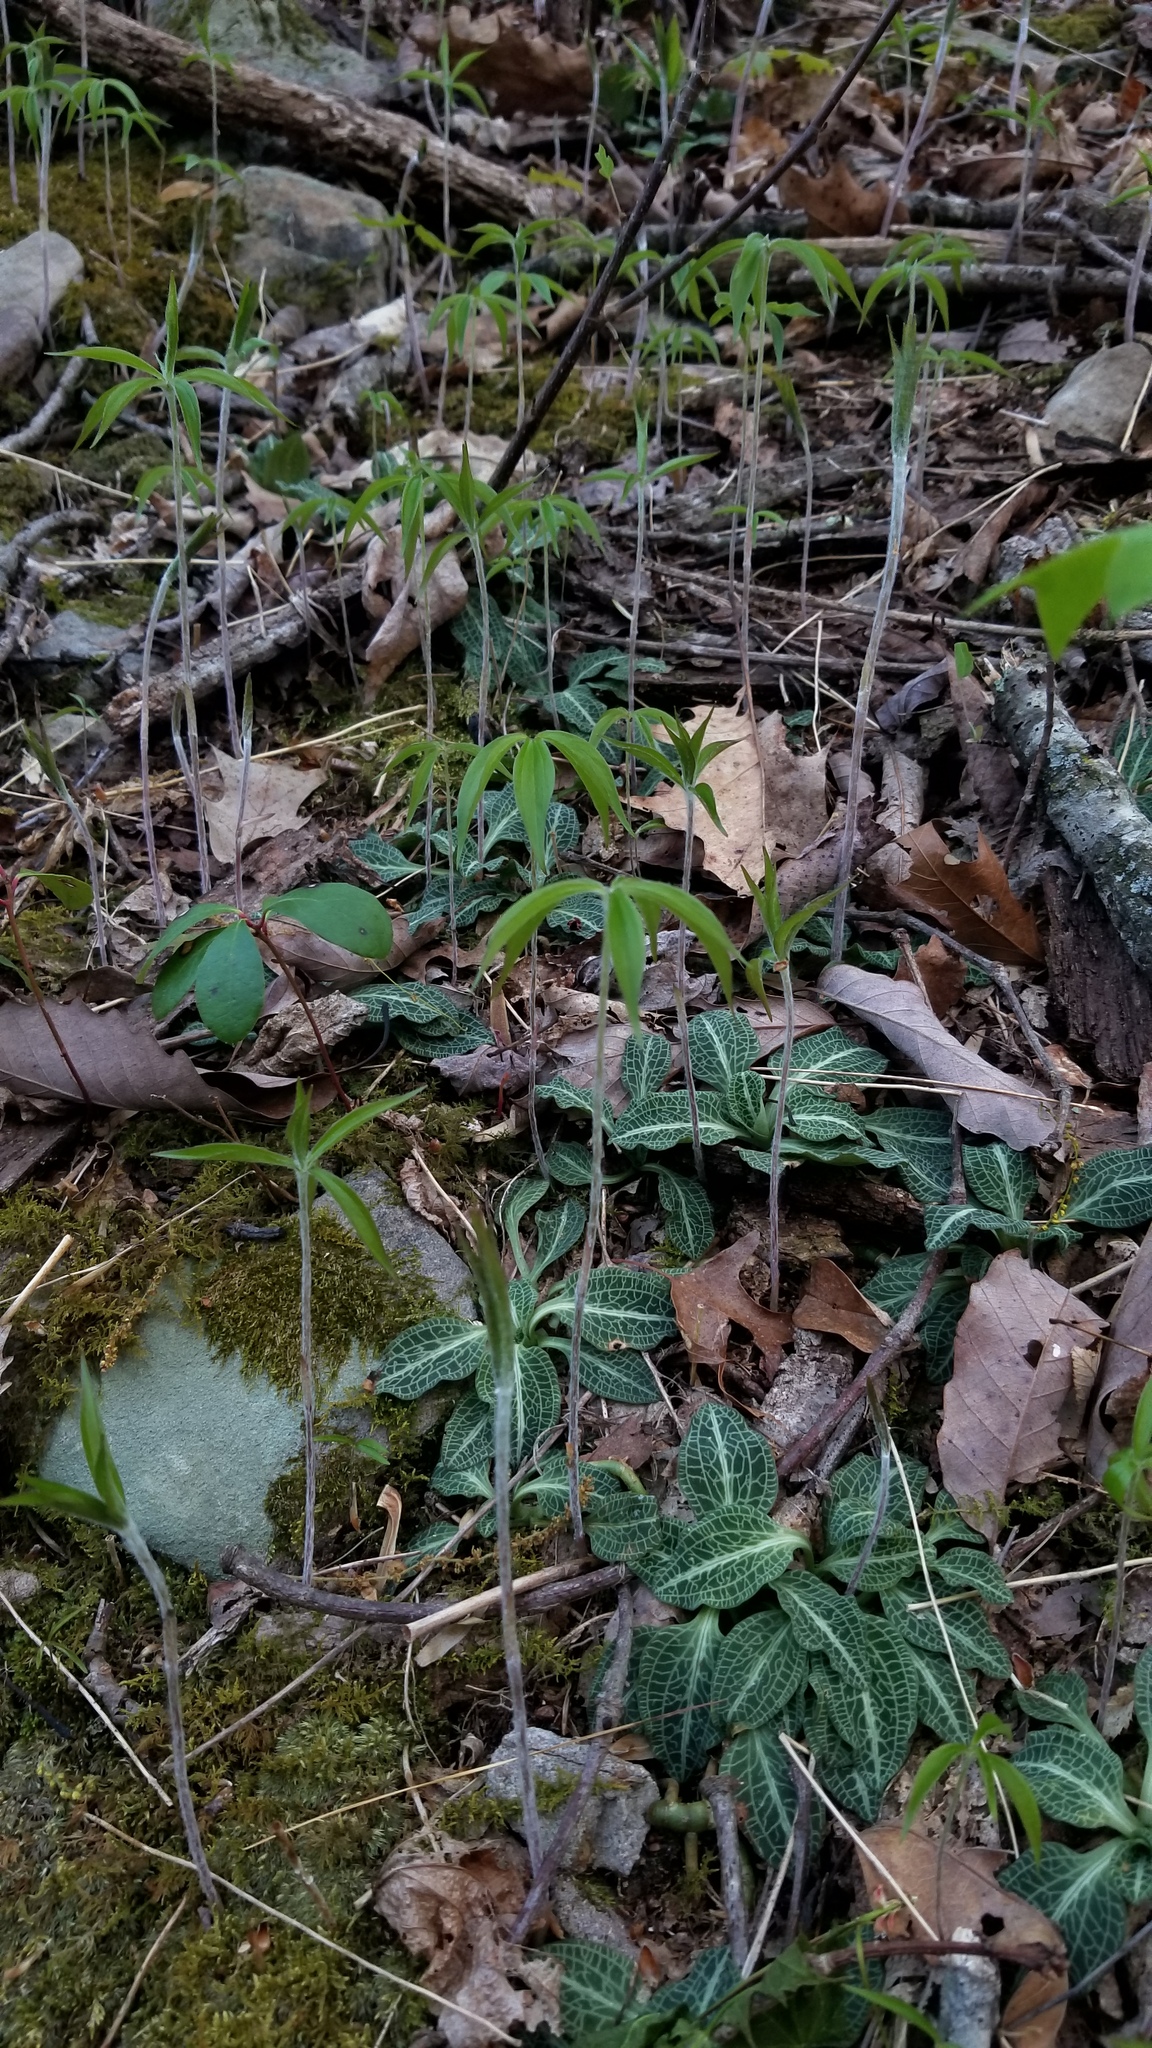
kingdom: Plantae
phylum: Tracheophyta
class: Liliopsida
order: Liliales
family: Liliaceae
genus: Medeola
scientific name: Medeola virginiana
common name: Indian cucumber-root
